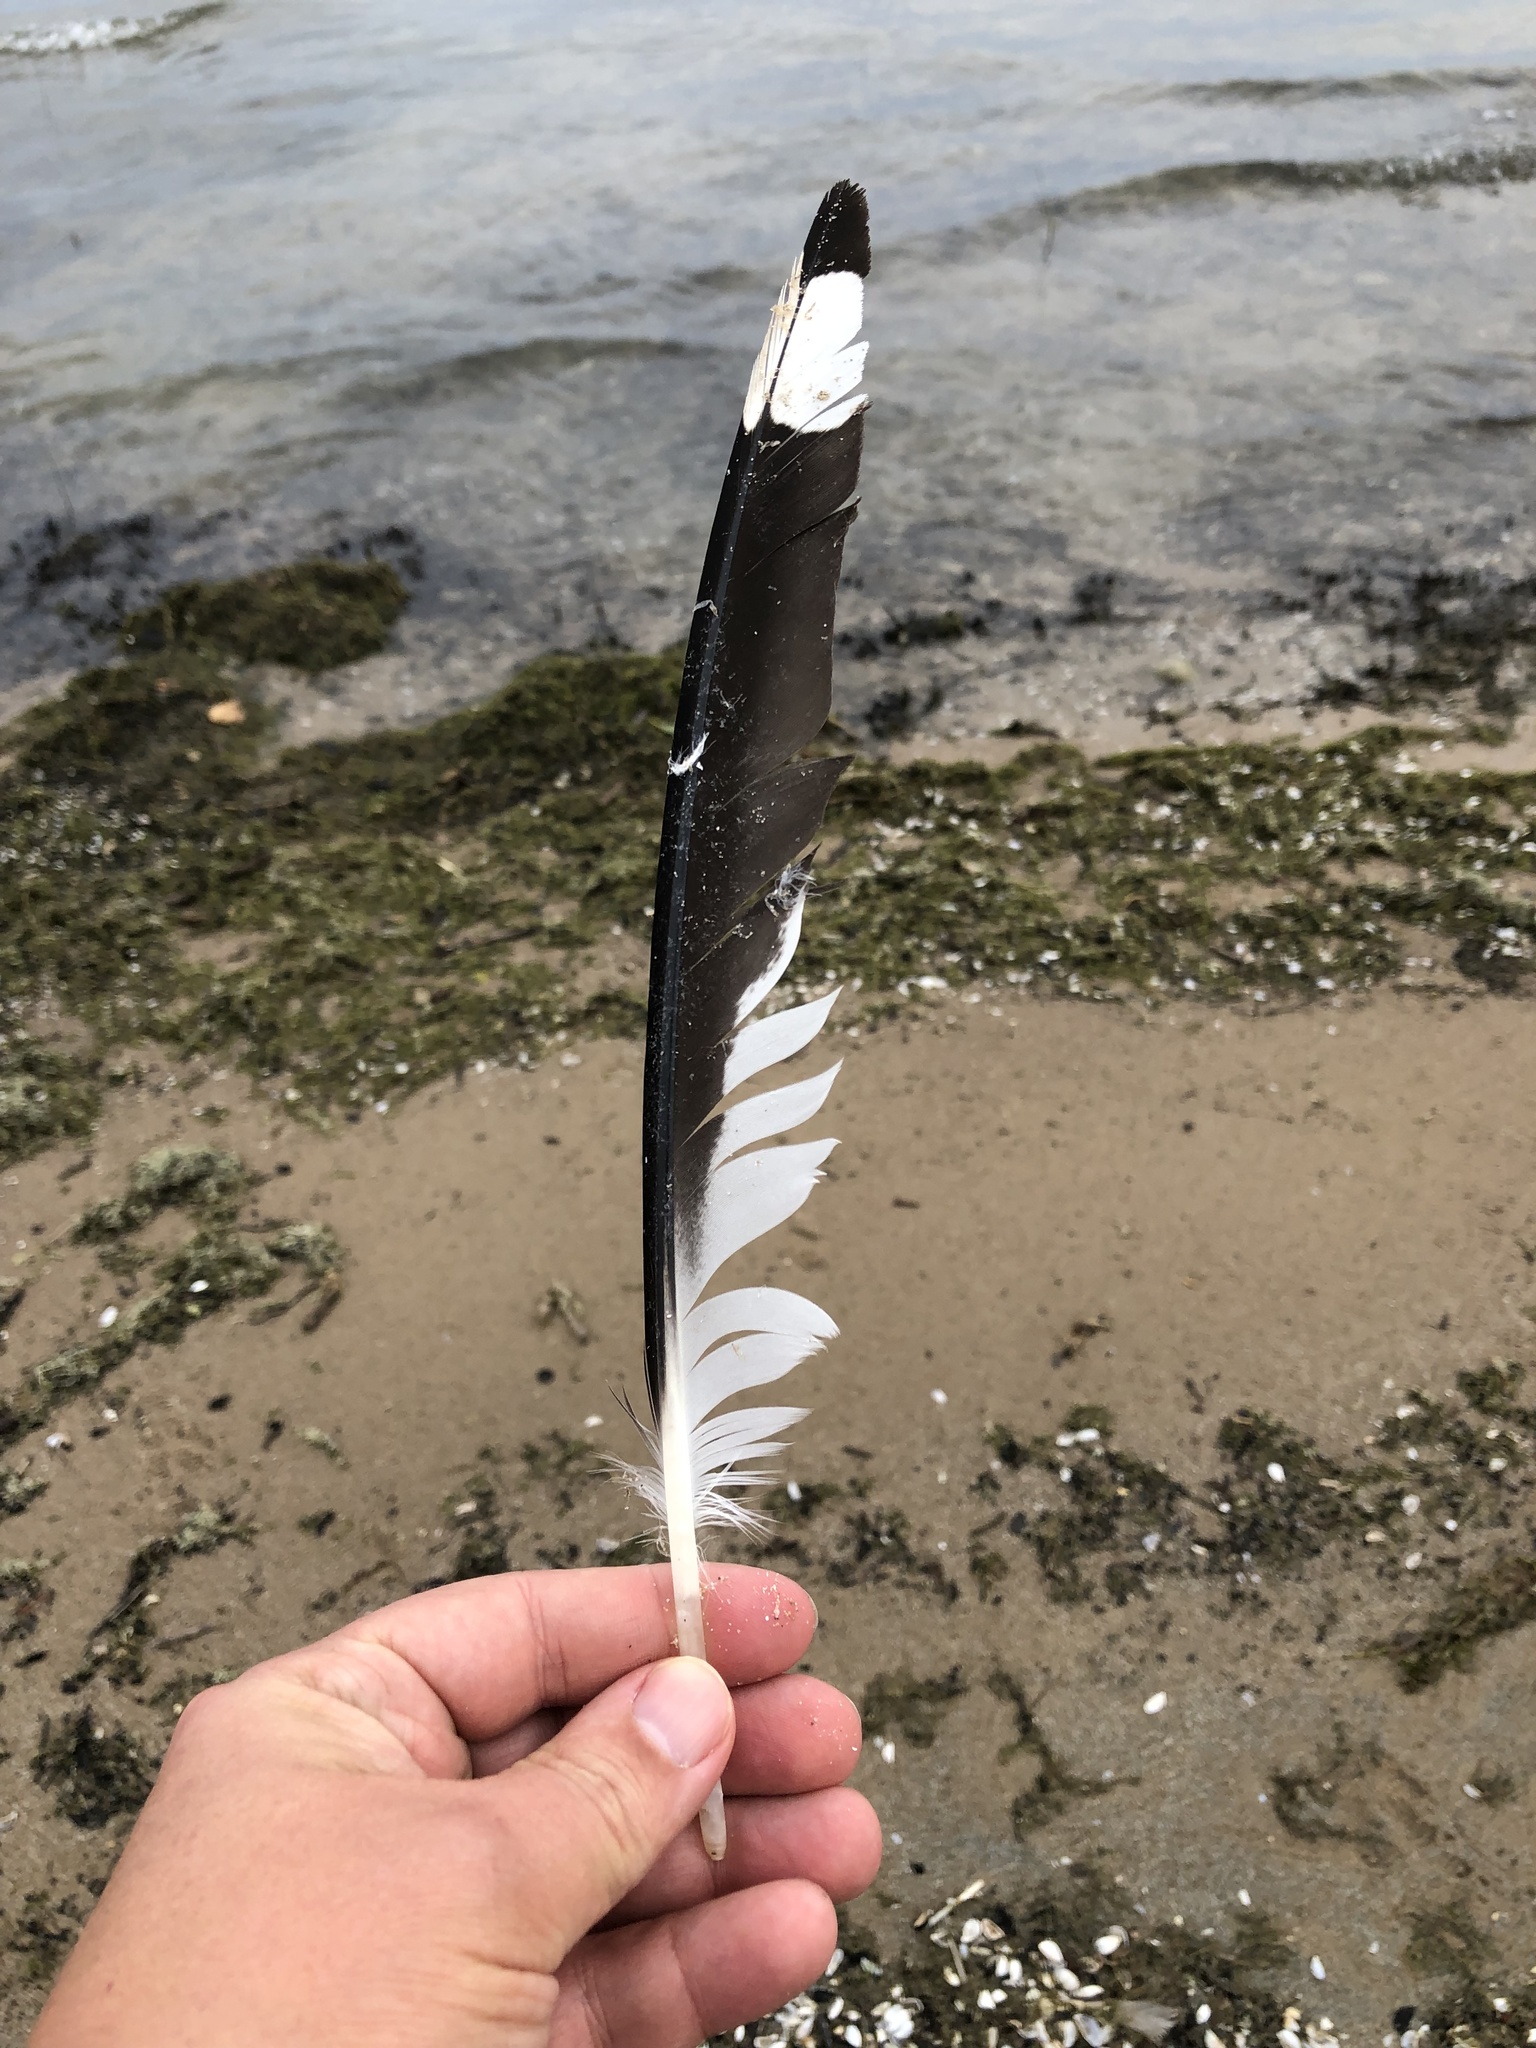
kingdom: Animalia
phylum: Chordata
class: Aves
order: Charadriiformes
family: Laridae
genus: Larus
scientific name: Larus delawarensis
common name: Ring-billed gull
